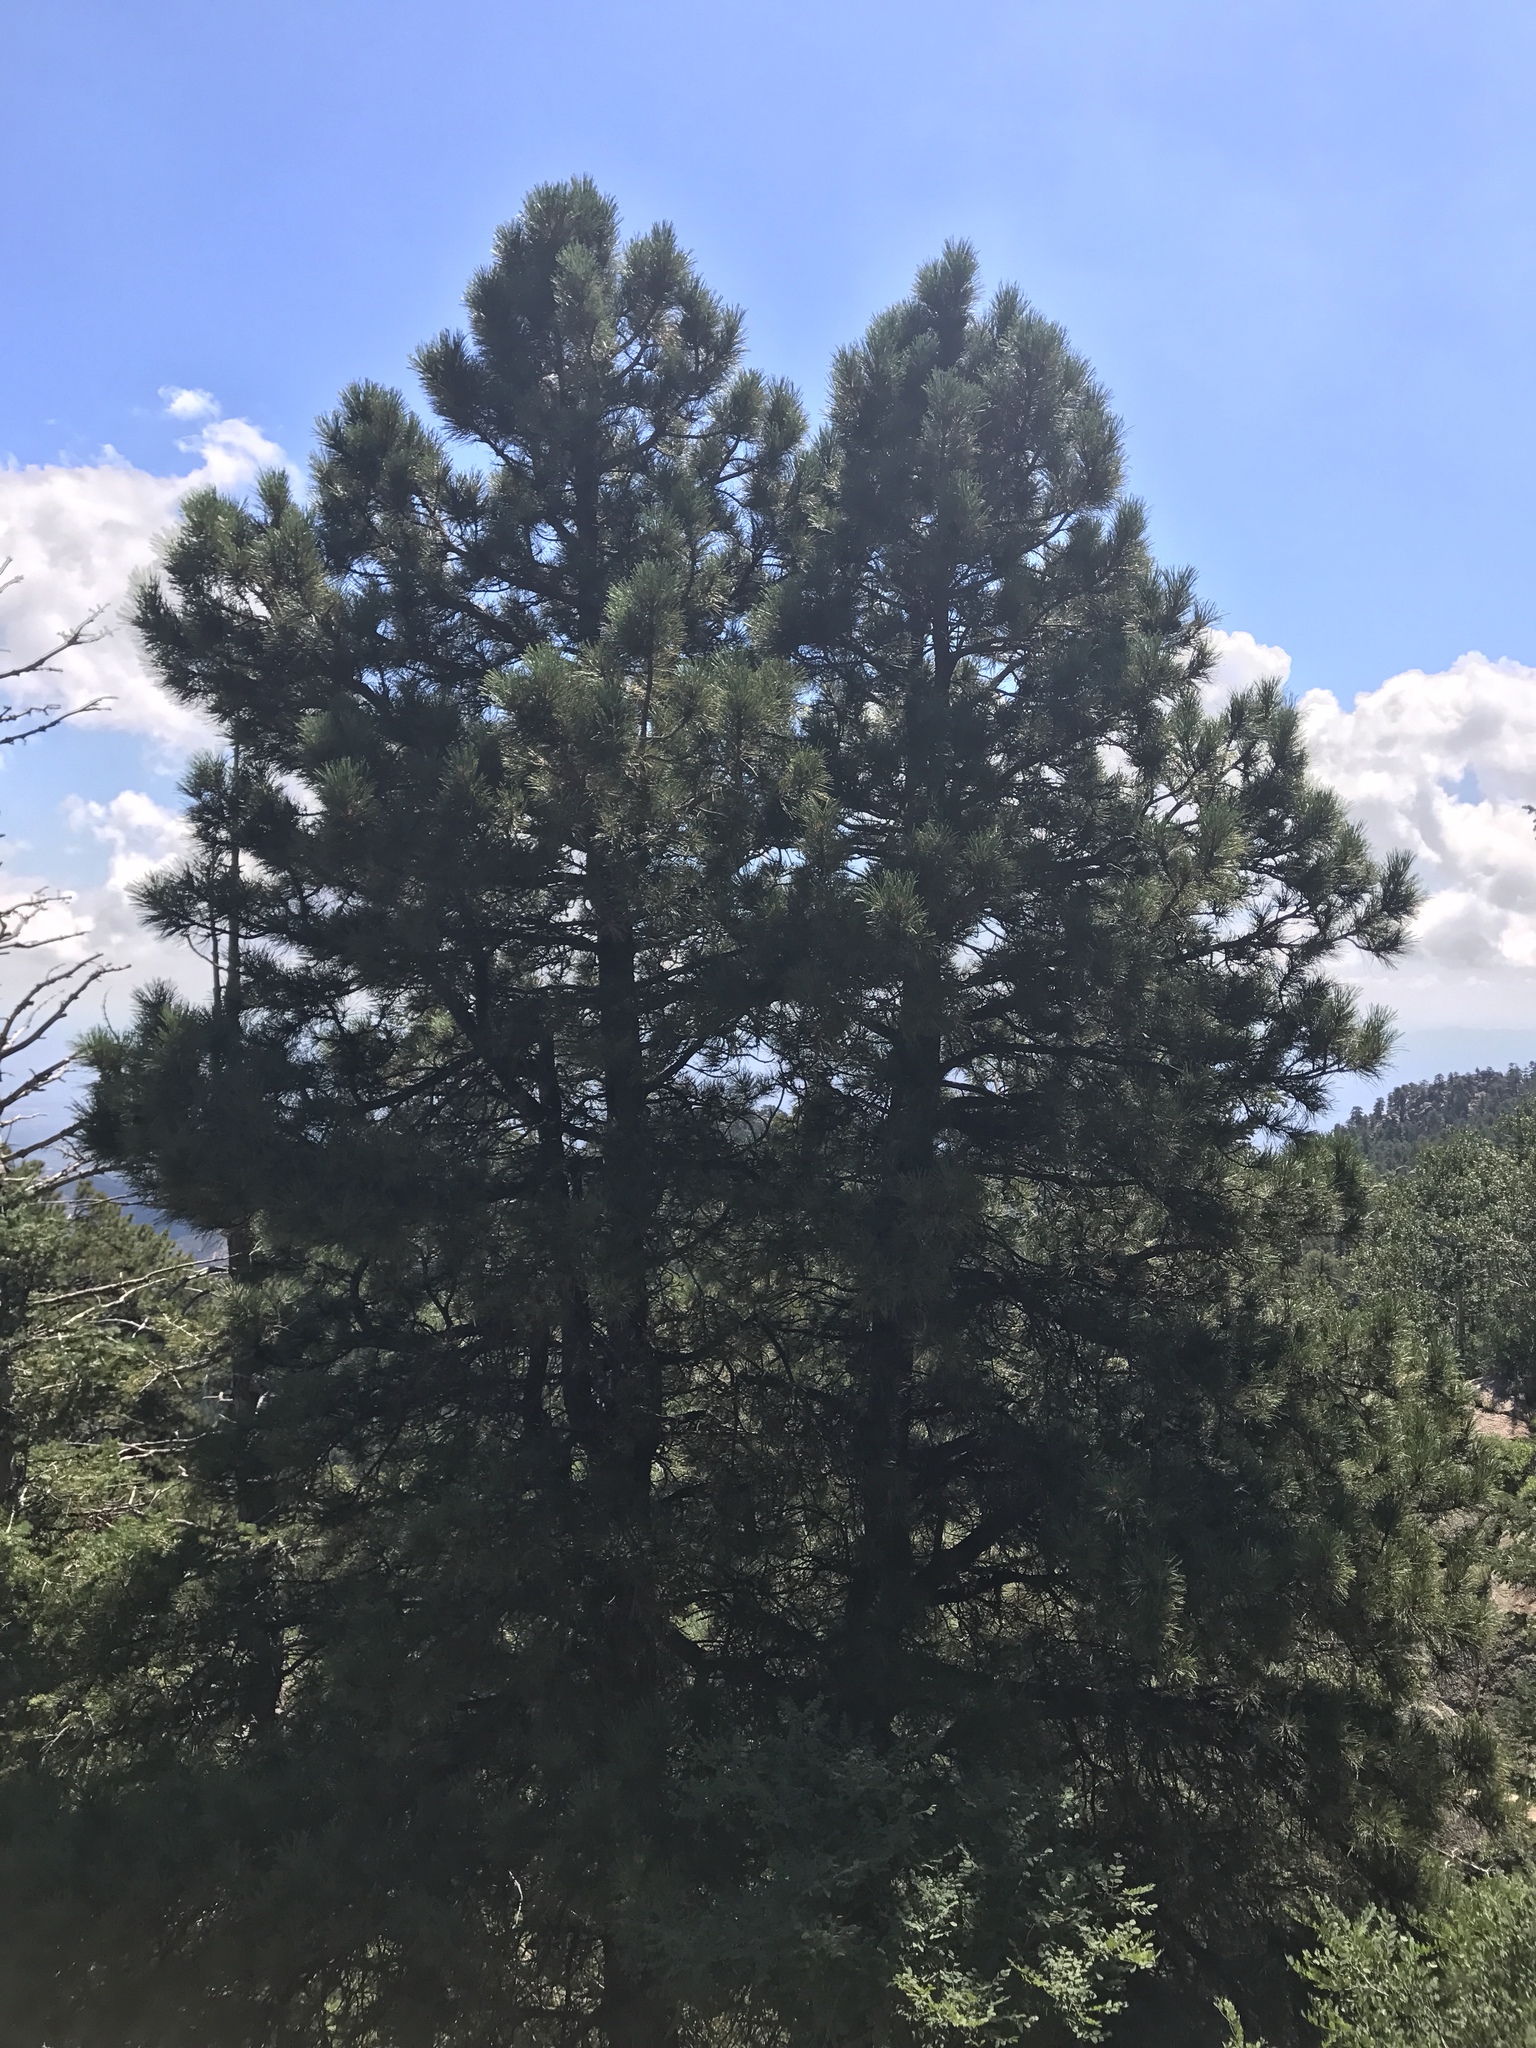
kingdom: Plantae
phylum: Tracheophyta
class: Pinopsida
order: Pinales
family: Pinaceae
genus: Pinus
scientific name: Pinus ponderosa
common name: Western yellow-pine
